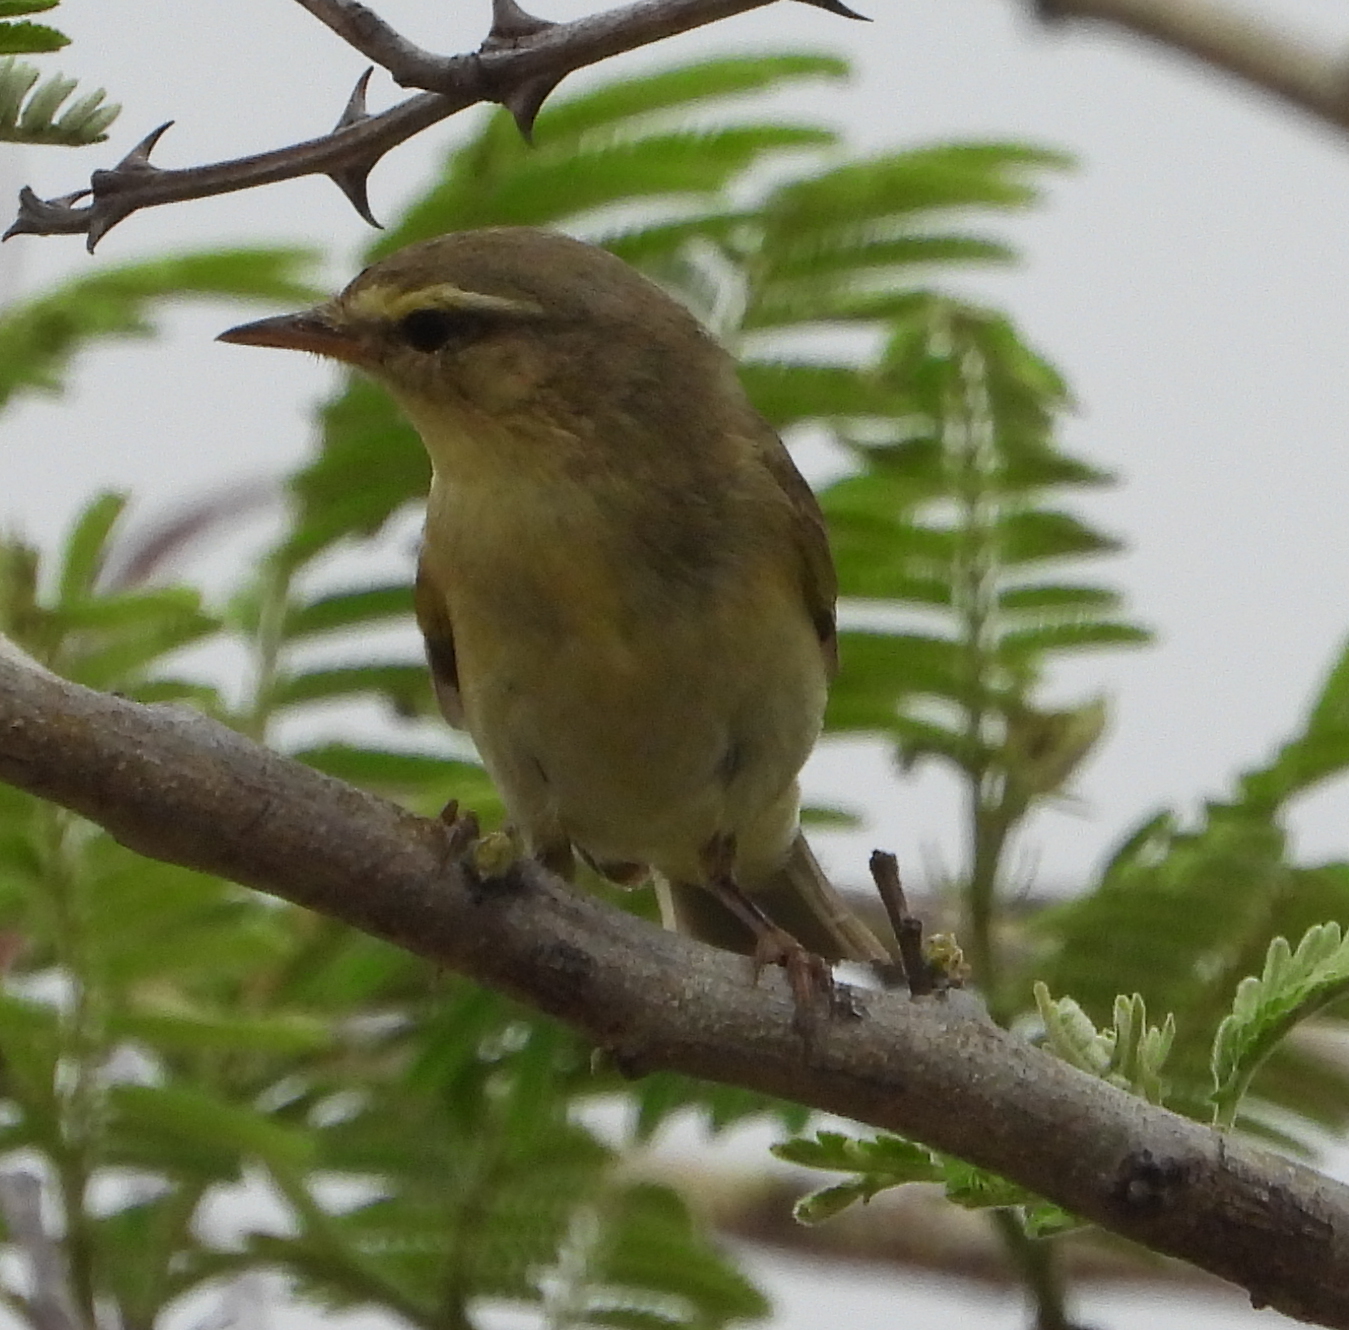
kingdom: Animalia
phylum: Chordata
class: Aves
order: Passeriformes
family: Phylloscopidae
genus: Phylloscopus
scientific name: Phylloscopus trochilus
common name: Willow warbler
